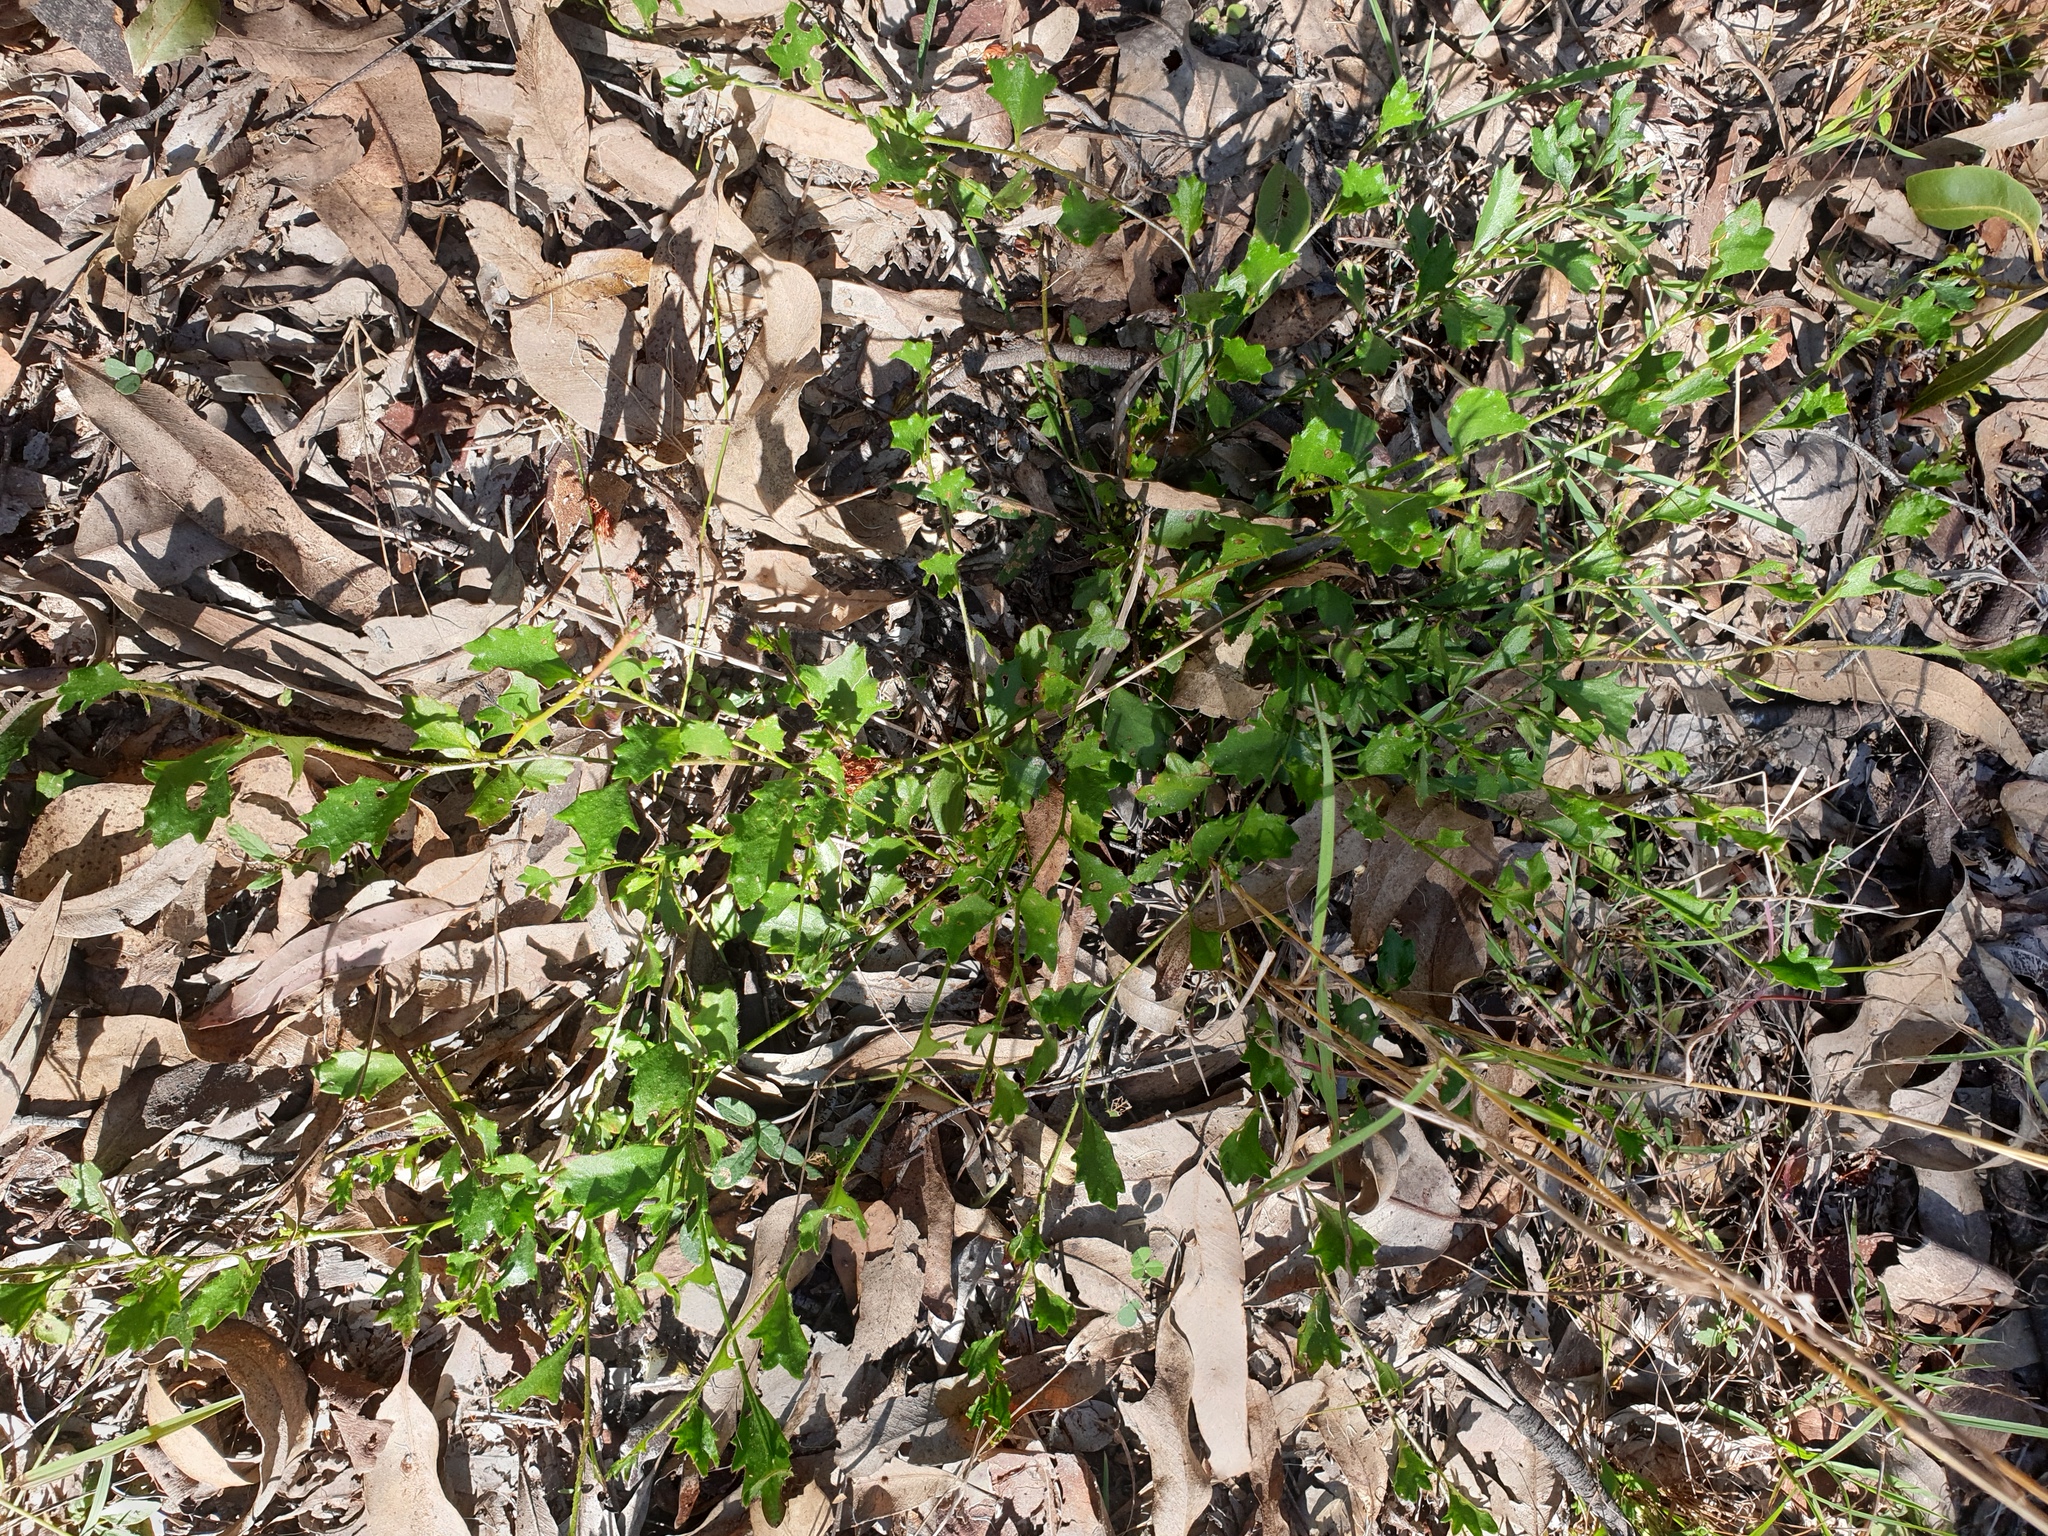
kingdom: Plantae
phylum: Tracheophyta
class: Magnoliopsida
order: Asterales
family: Goodeniaceae
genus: Goodenia
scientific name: Goodenia rotundifolia
